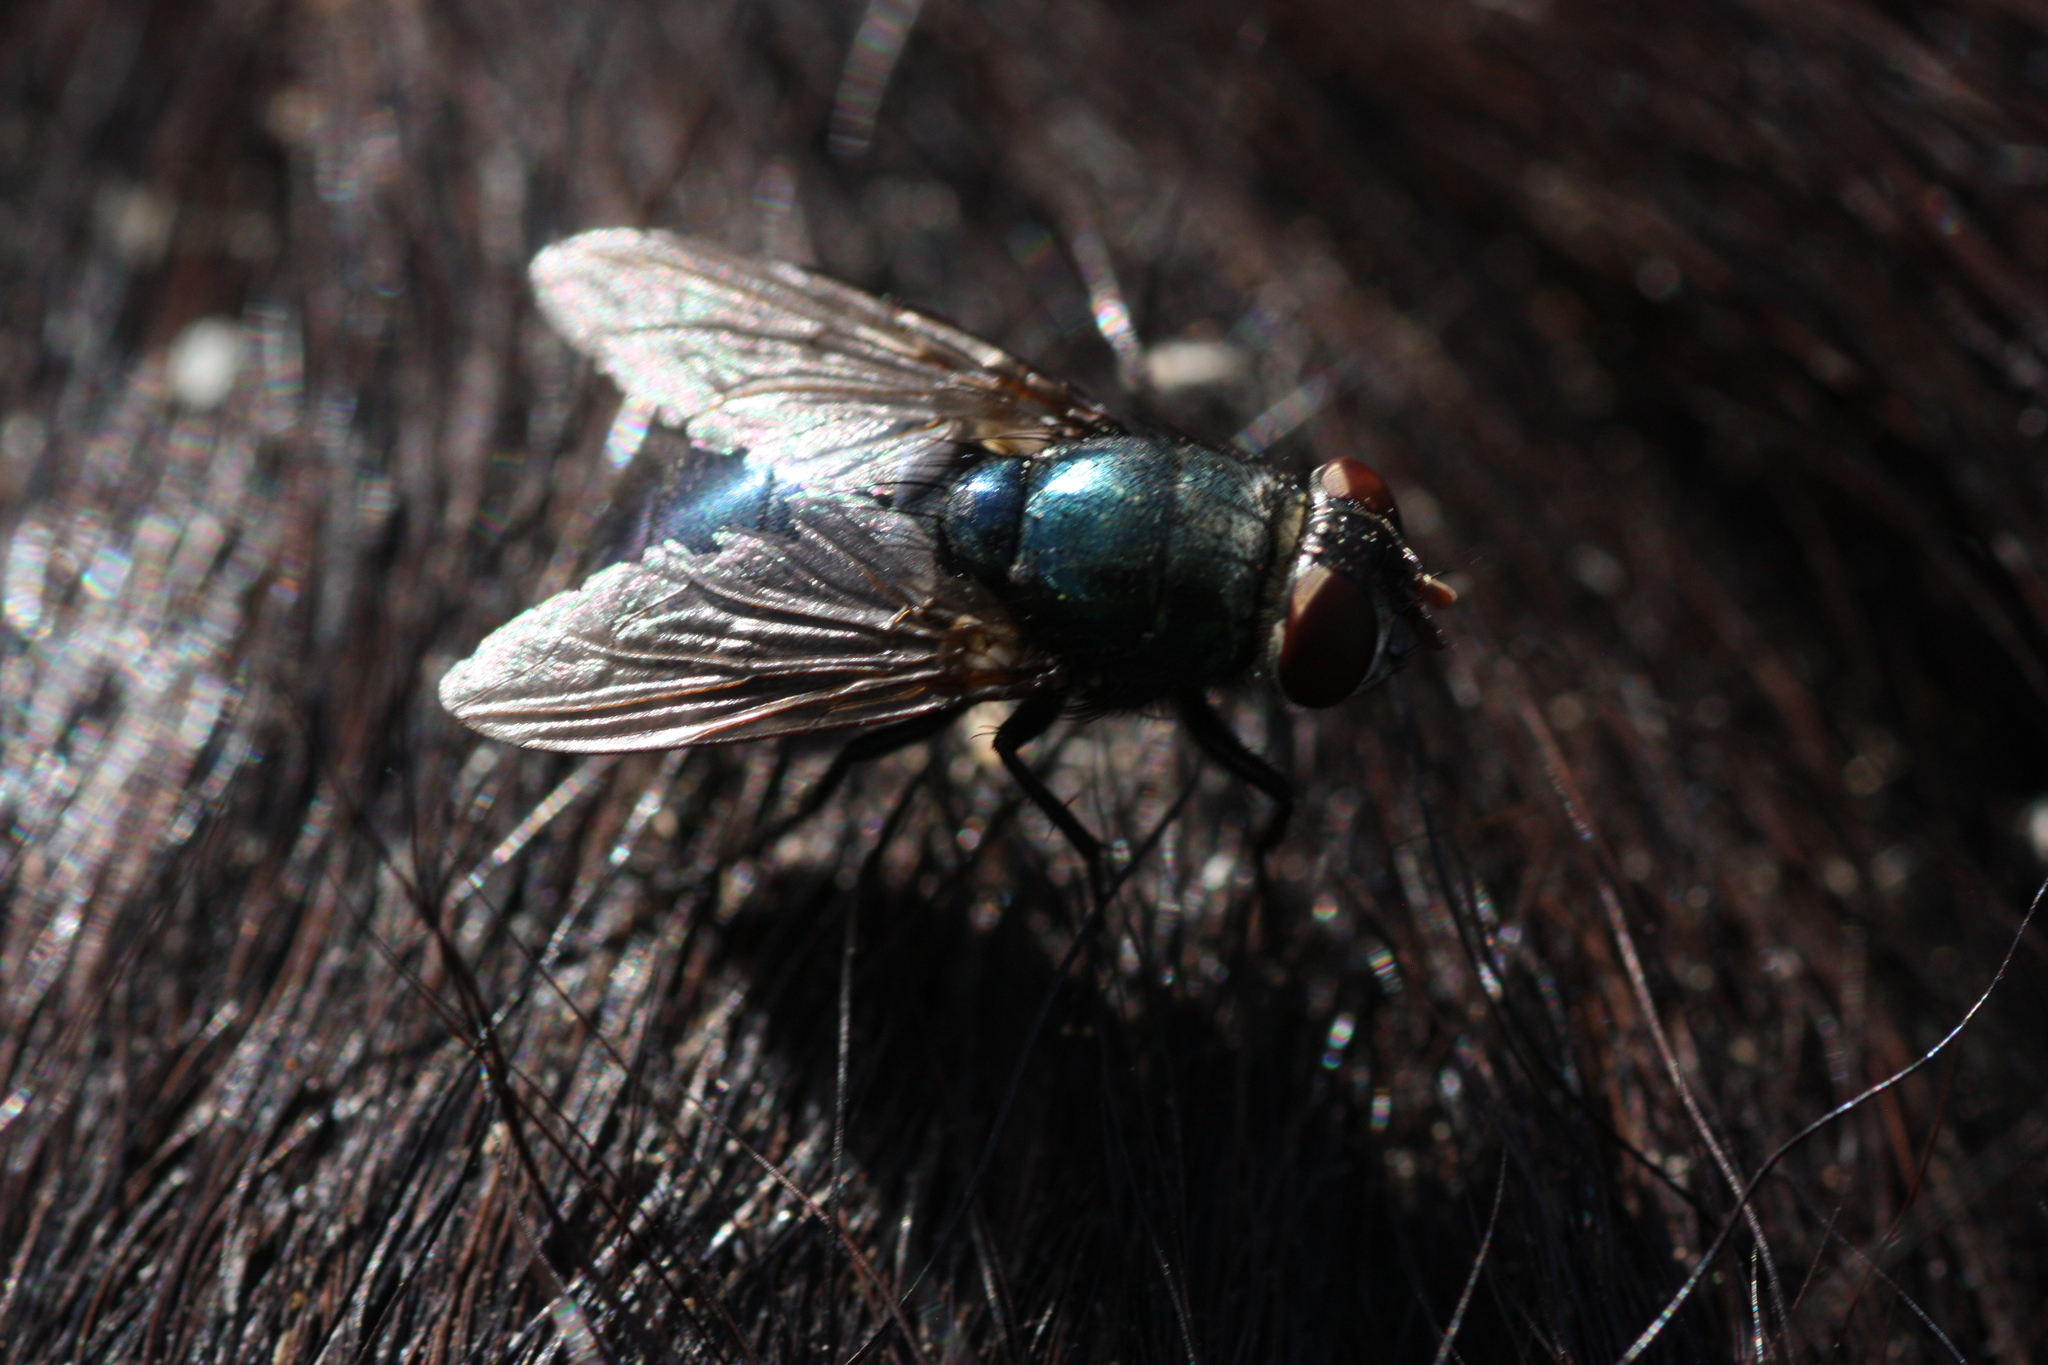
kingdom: Animalia
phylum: Arthropoda
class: Insecta
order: Diptera
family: Calliphoridae
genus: Phormia
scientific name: Phormia regina
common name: Black blow fly
